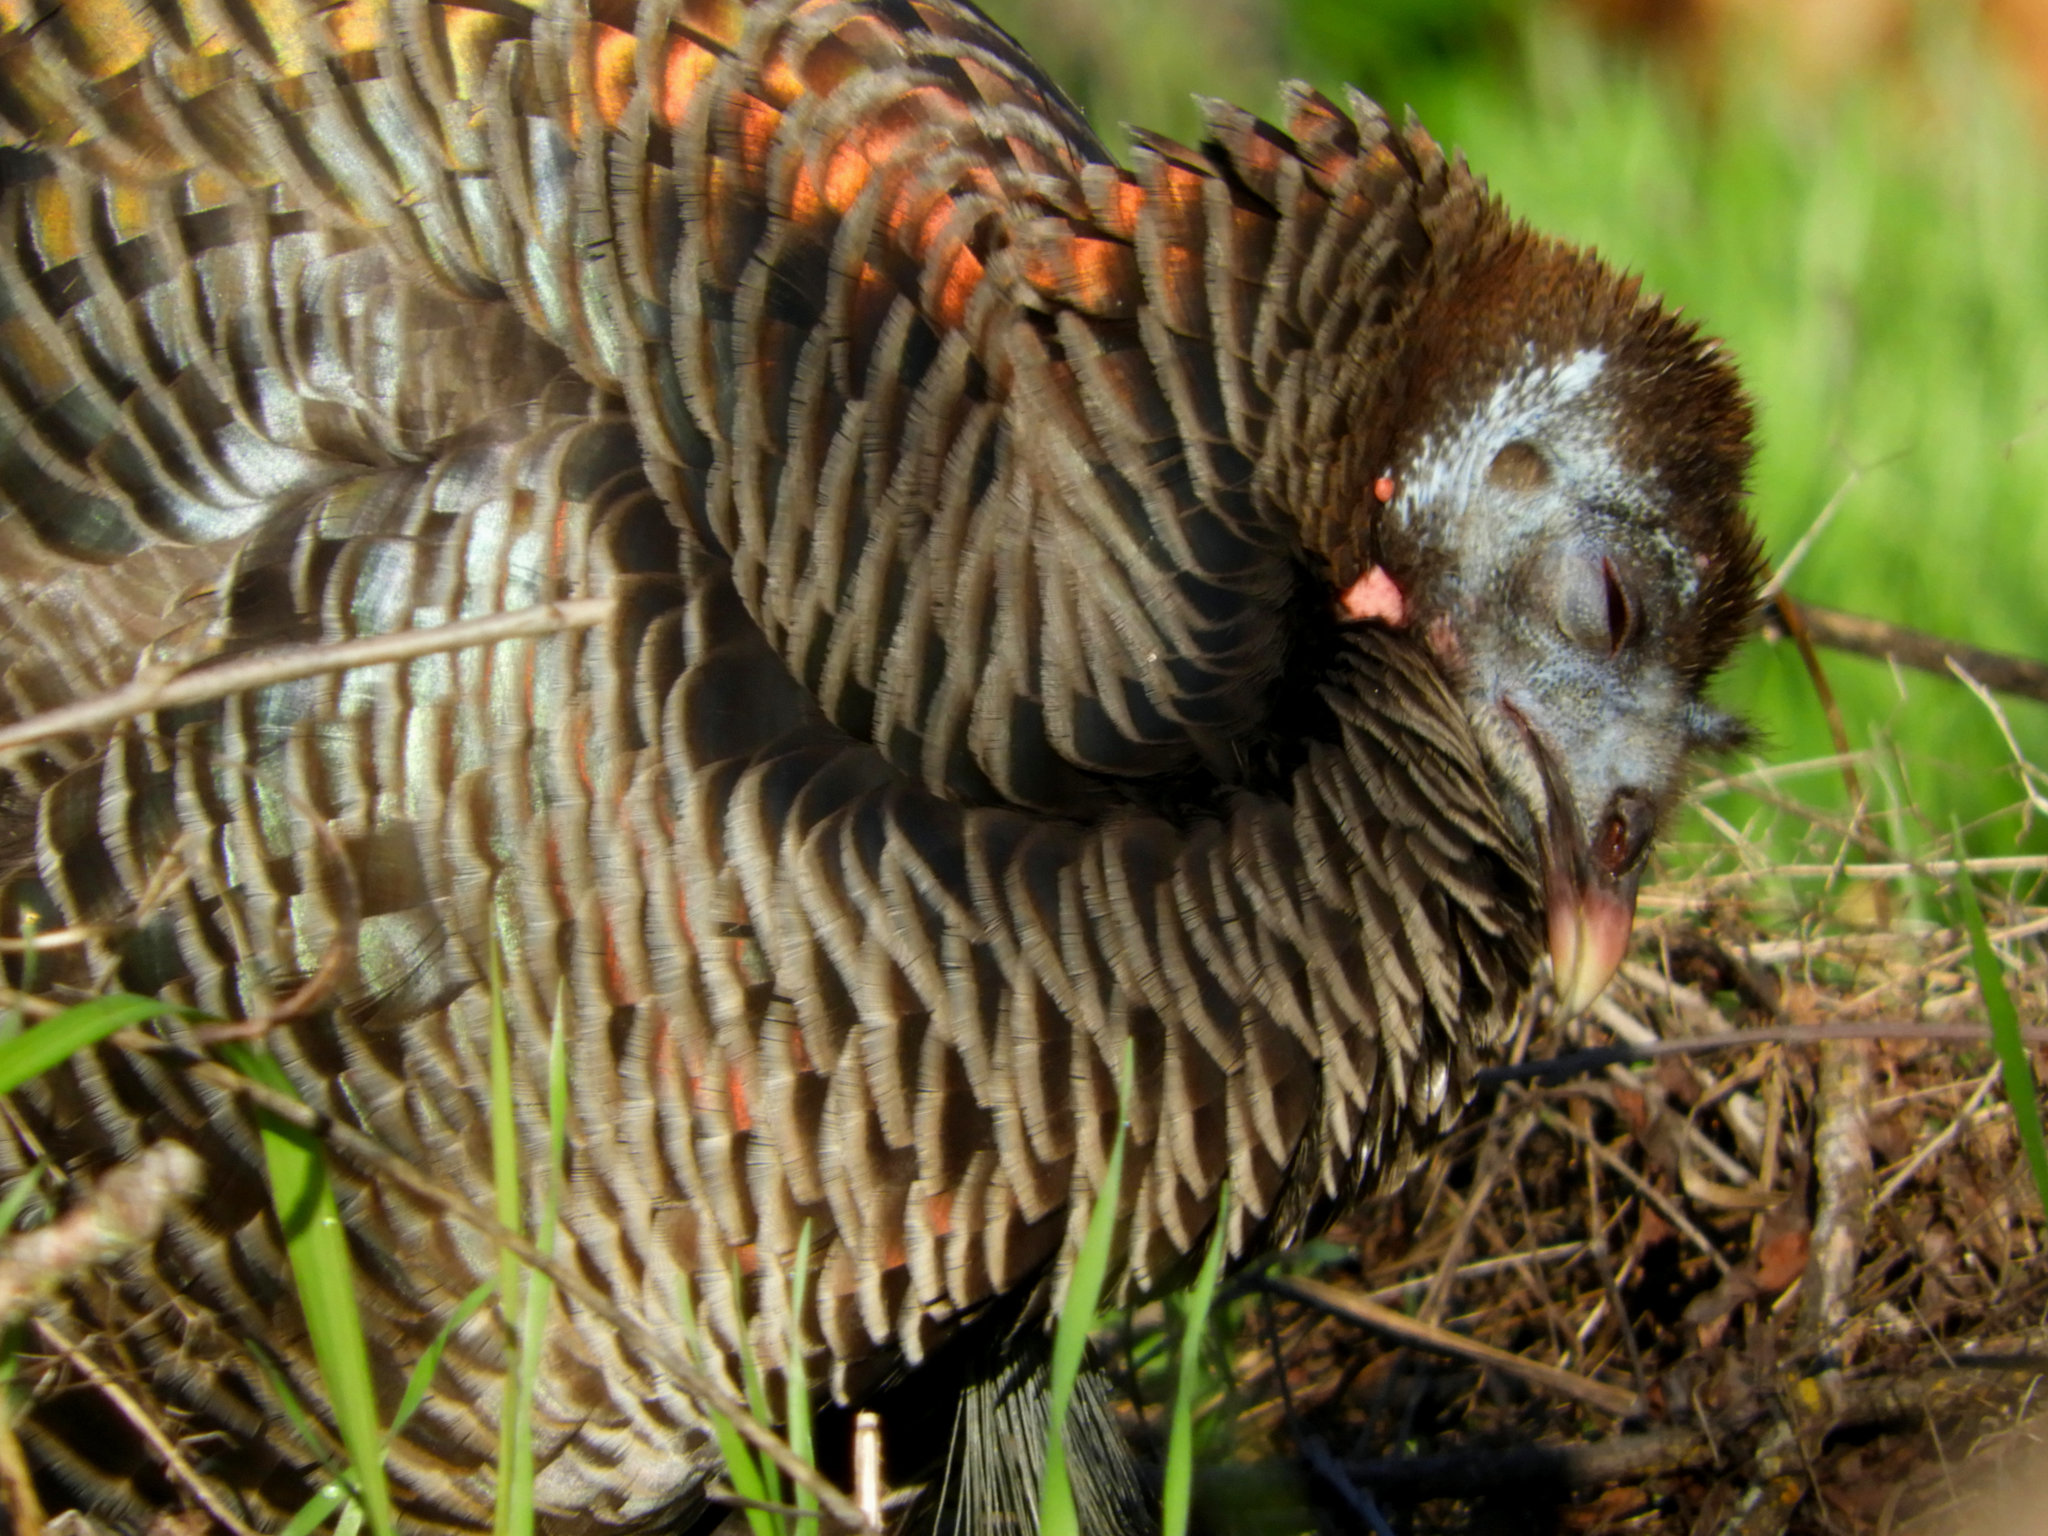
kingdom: Animalia
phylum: Chordata
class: Aves
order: Galliformes
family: Phasianidae
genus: Meleagris
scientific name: Meleagris gallopavo
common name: Wild turkey
